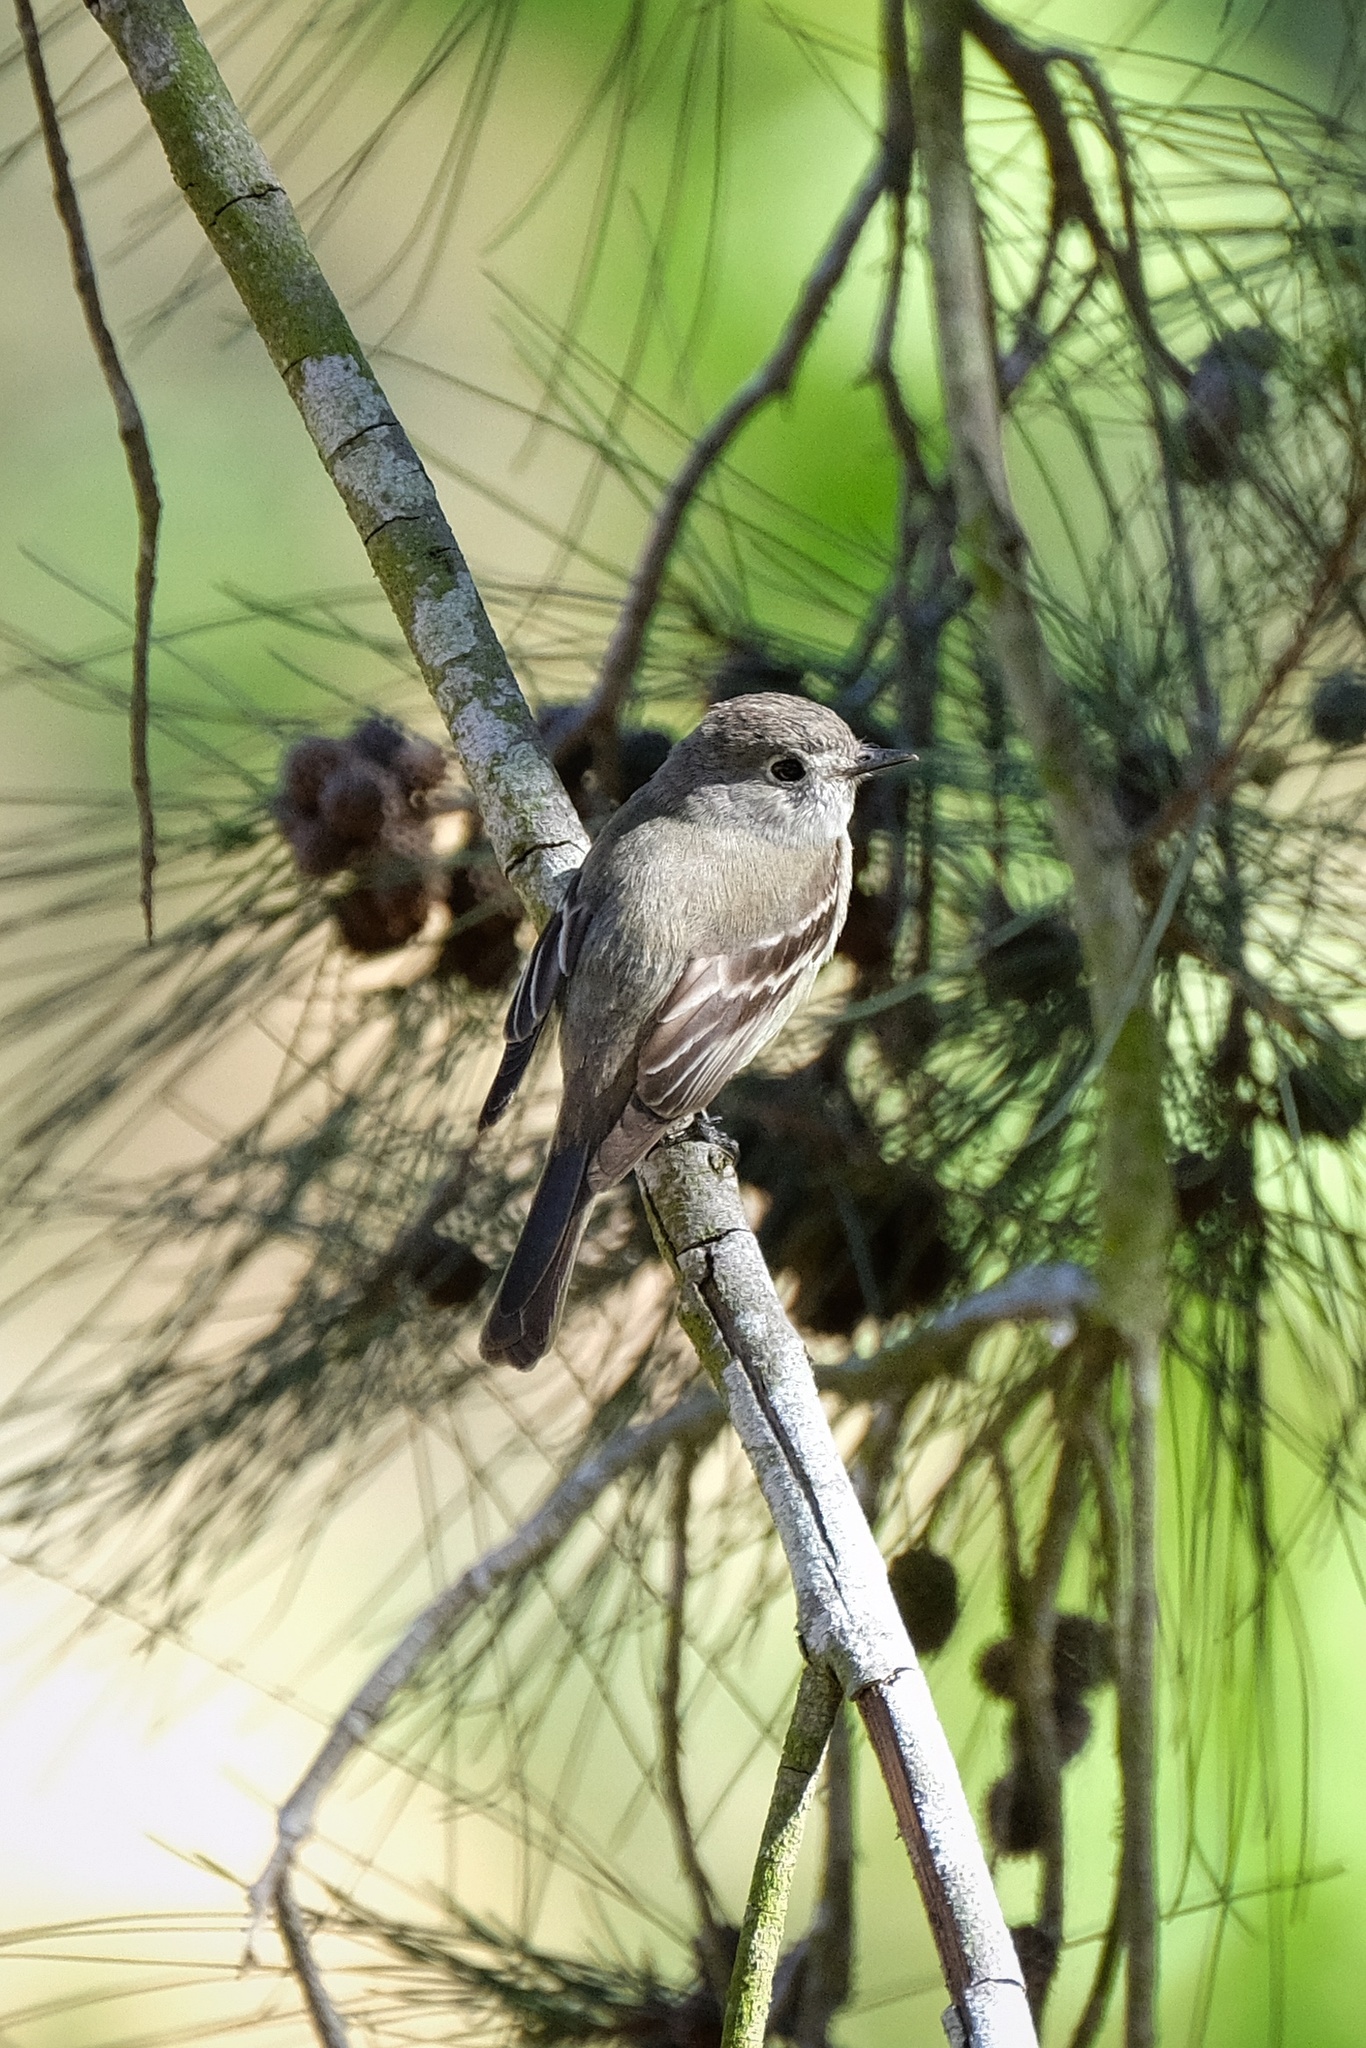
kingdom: Animalia
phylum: Chordata
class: Aves
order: Passeriformes
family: Tyrannidae
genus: Empidonax
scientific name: Empidonax hammondii
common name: Hammond's flycatcher
